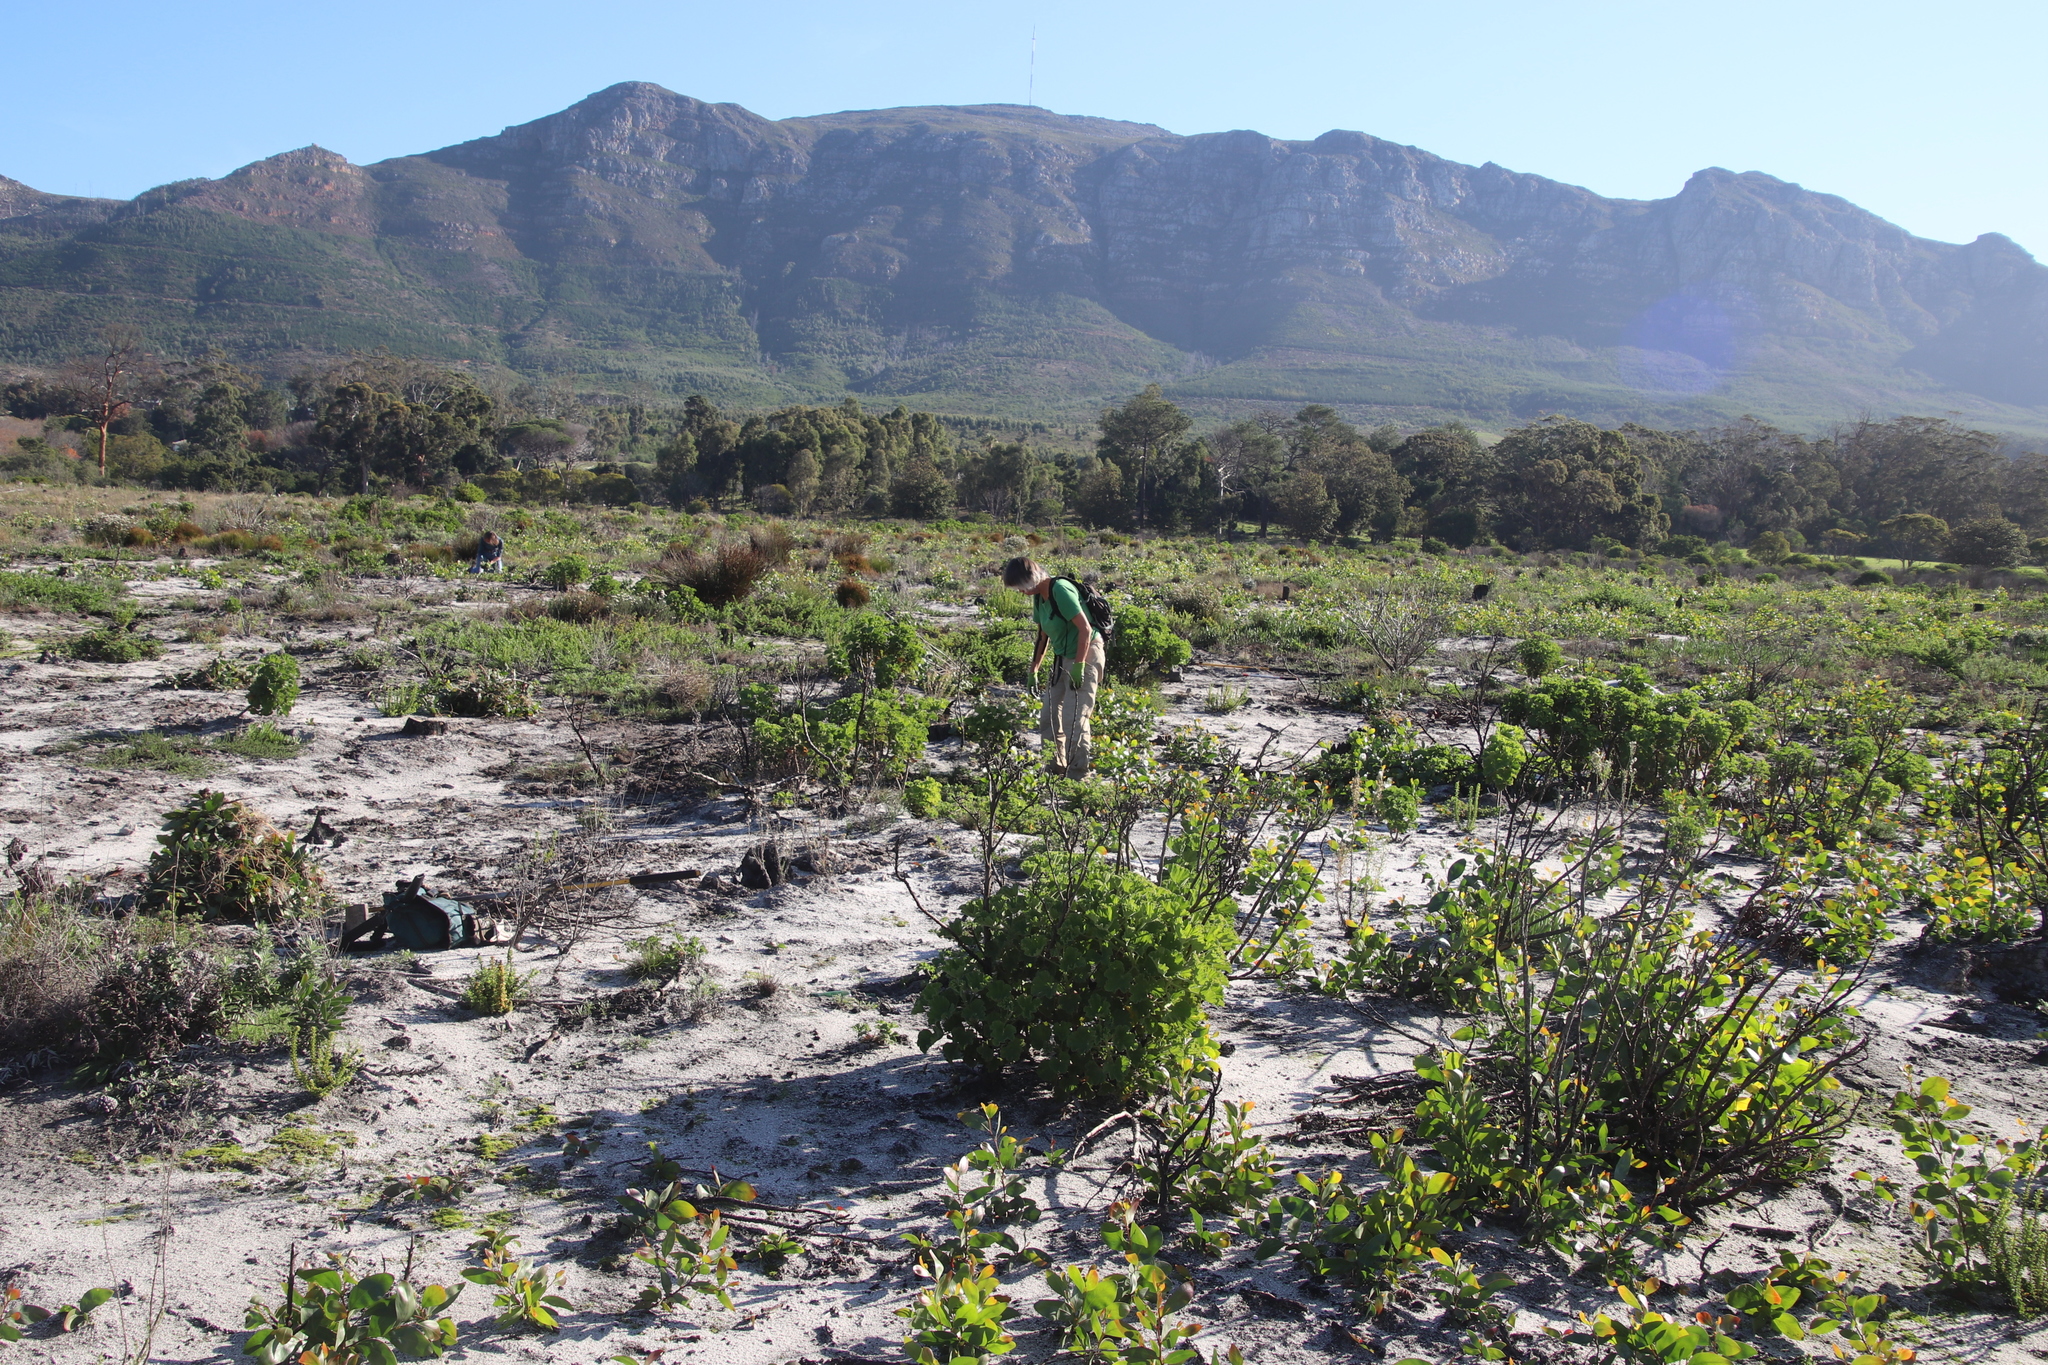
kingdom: Plantae
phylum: Tracheophyta
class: Magnoliopsida
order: Geraniales
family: Geraniaceae
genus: Pelargonium
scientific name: Pelargonium cucullatum
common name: Tree pelargonium
